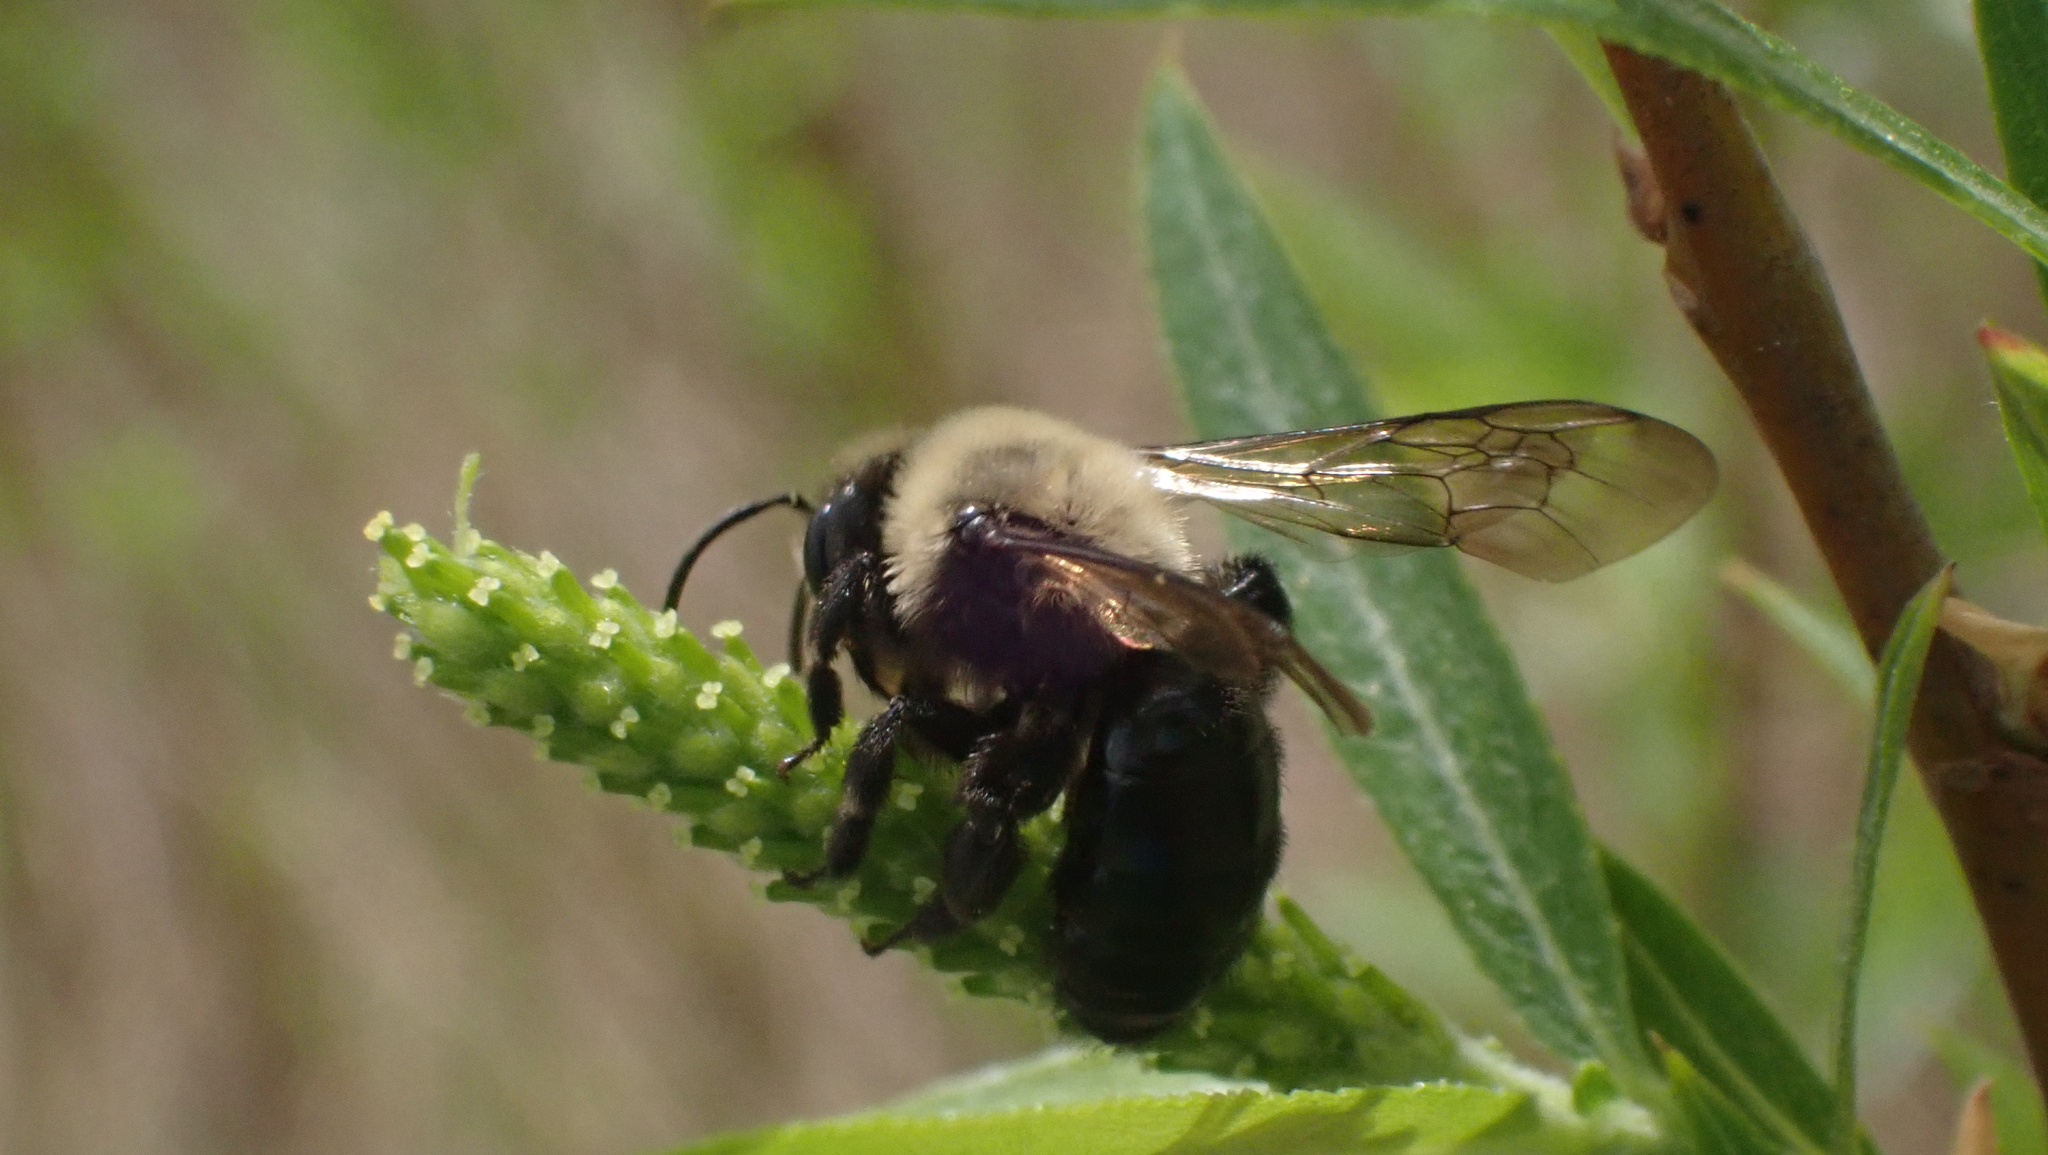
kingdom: Animalia
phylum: Arthropoda
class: Insecta
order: Hymenoptera
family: Andrenidae
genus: Andrena
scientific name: Andrena carlini
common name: Carlin's mining bee
